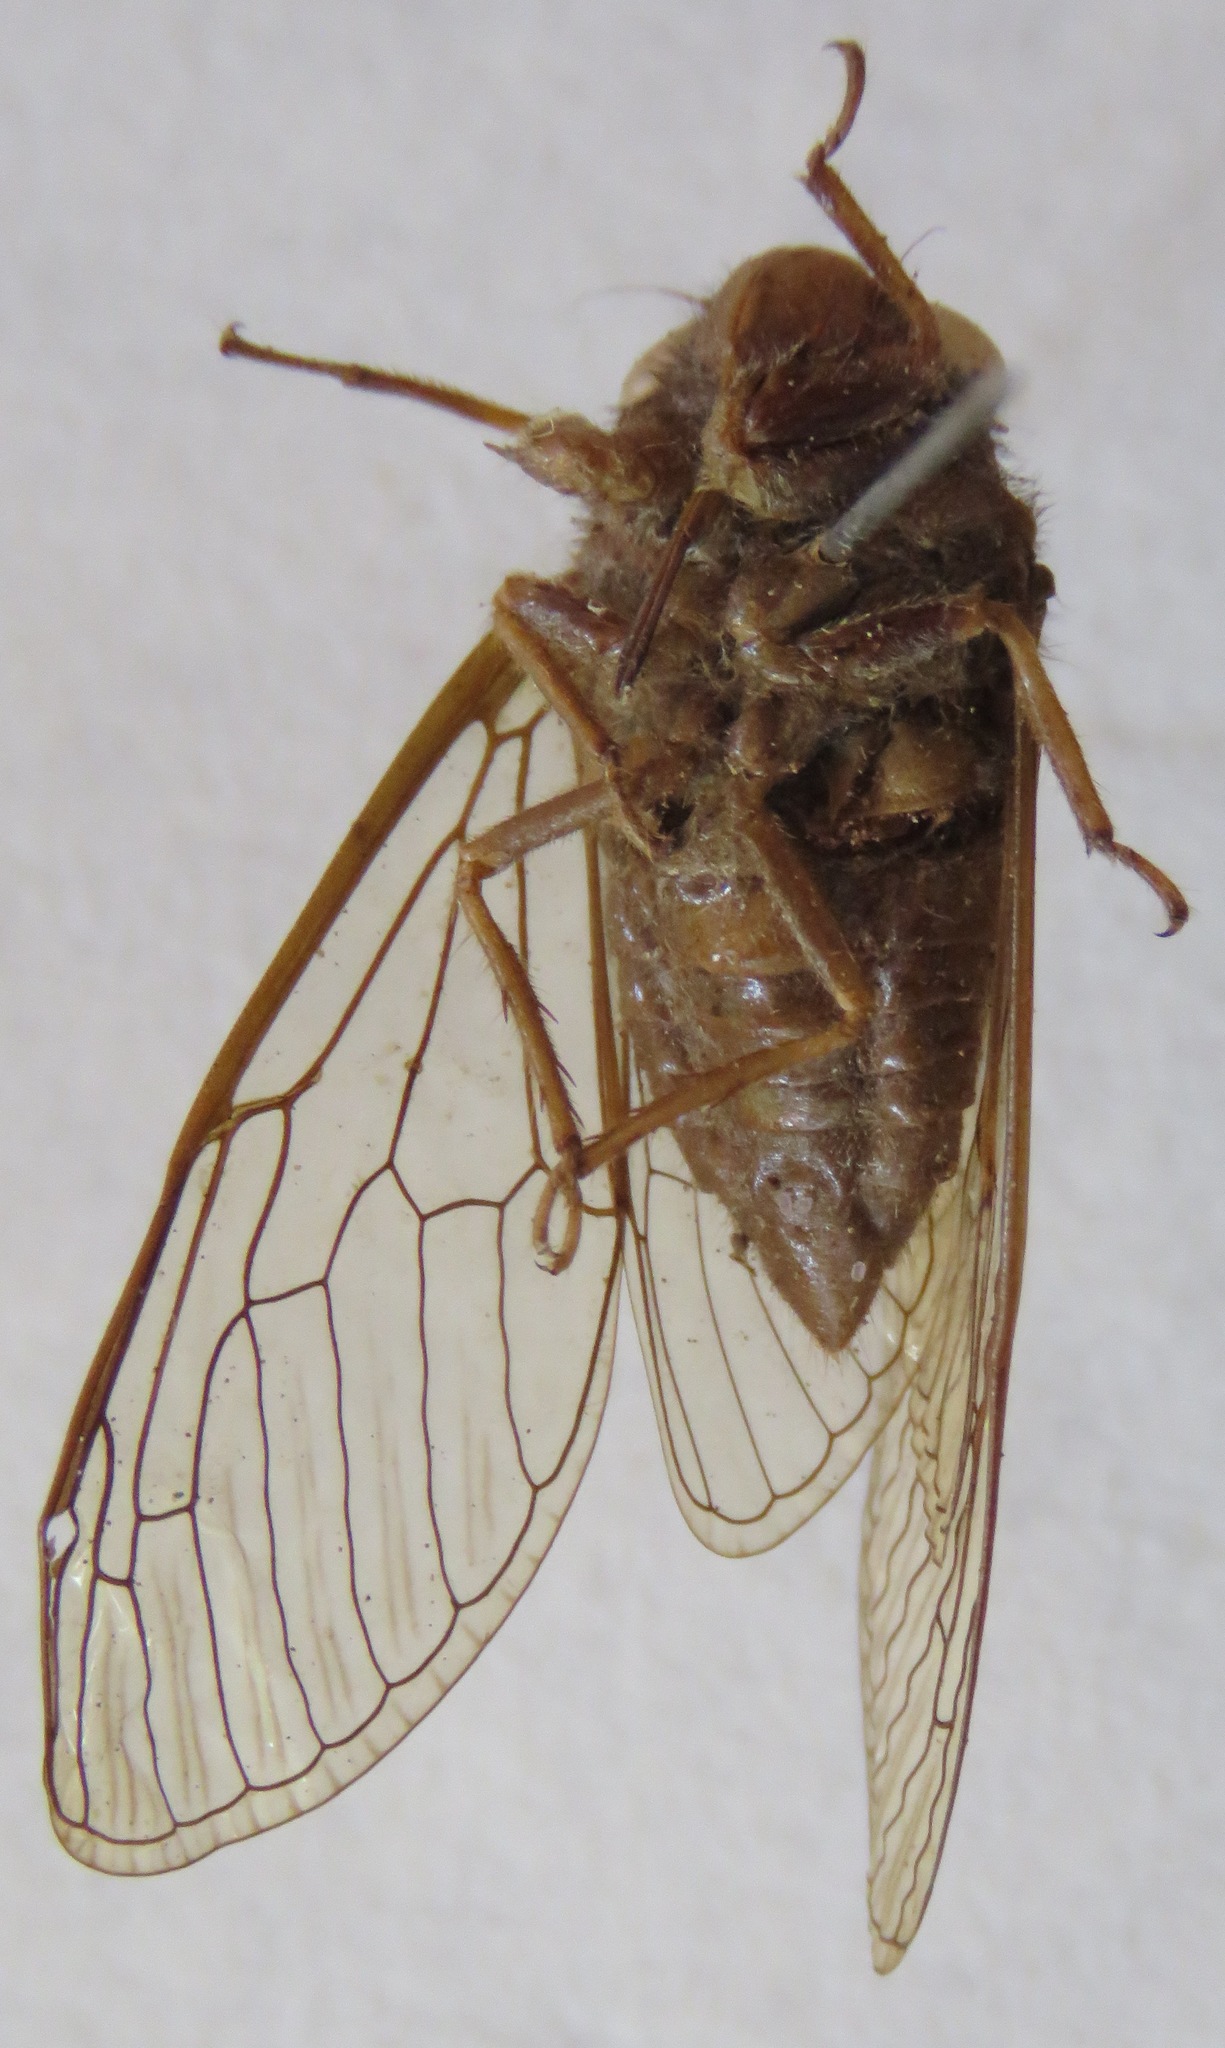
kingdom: Animalia
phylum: Arthropoda
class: Insecta
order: Hemiptera
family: Cicadidae
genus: Carineta
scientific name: Carineta cinara
